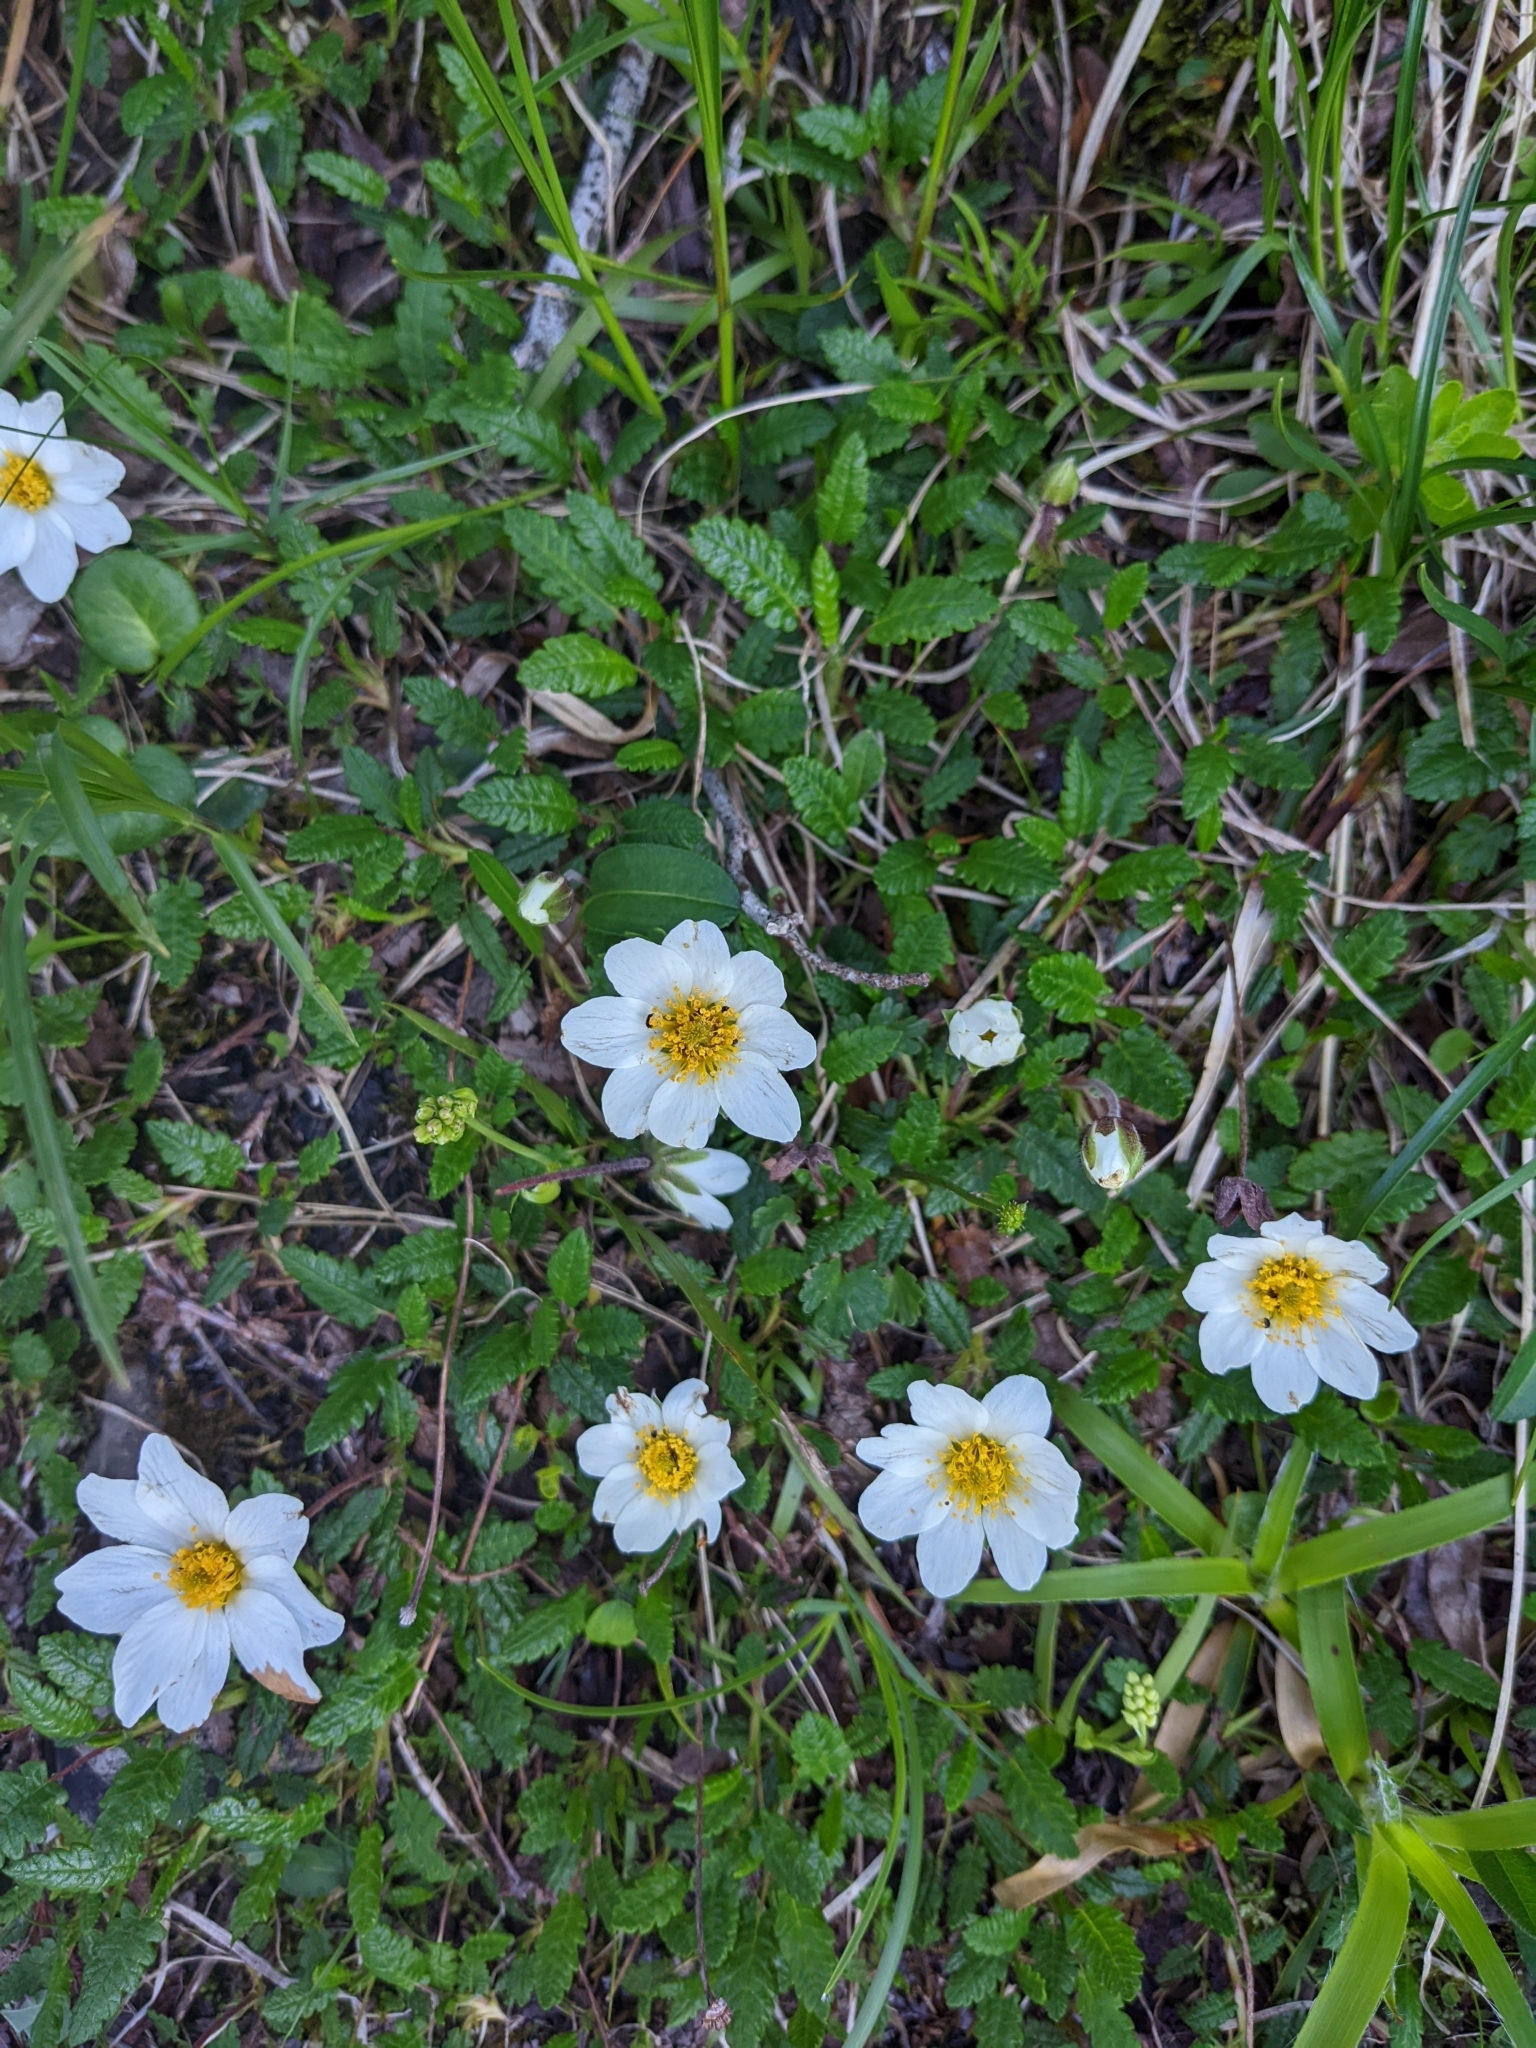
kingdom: Plantae
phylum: Tracheophyta
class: Magnoliopsida
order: Rosales
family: Rosaceae
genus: Dryas
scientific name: Dryas octopetala
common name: Eight-petal mountain-avens
